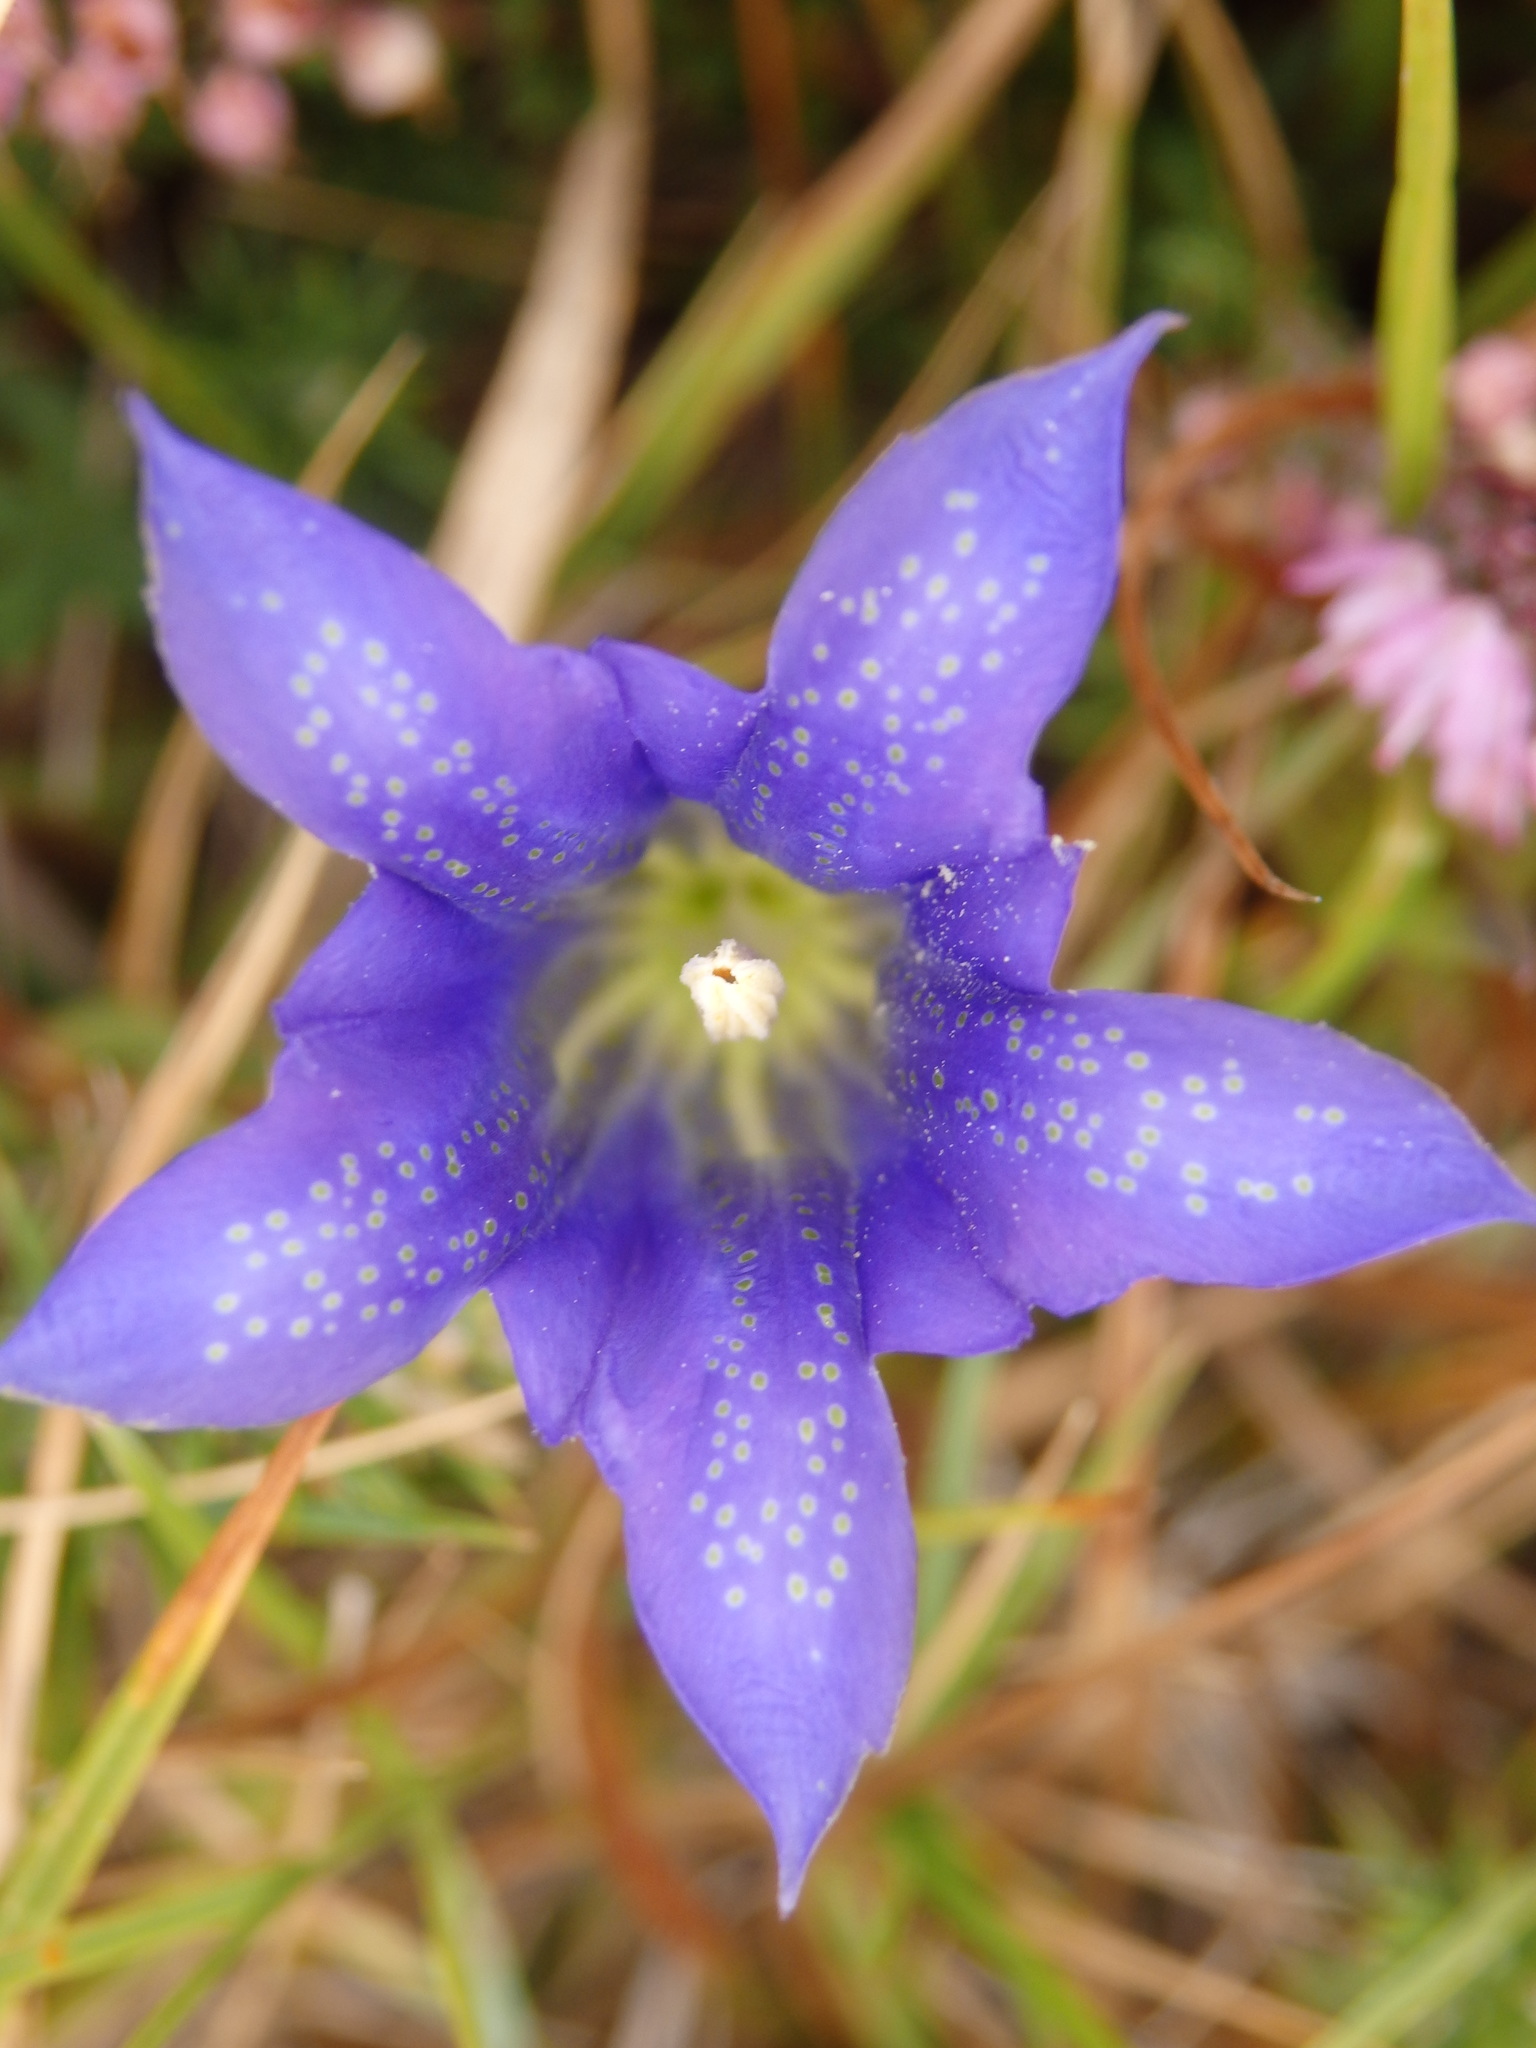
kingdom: Plantae
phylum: Tracheophyta
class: Magnoliopsida
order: Gentianales
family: Gentianaceae
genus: Gentiana
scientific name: Gentiana pneumonanthe
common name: Marsh gentian
